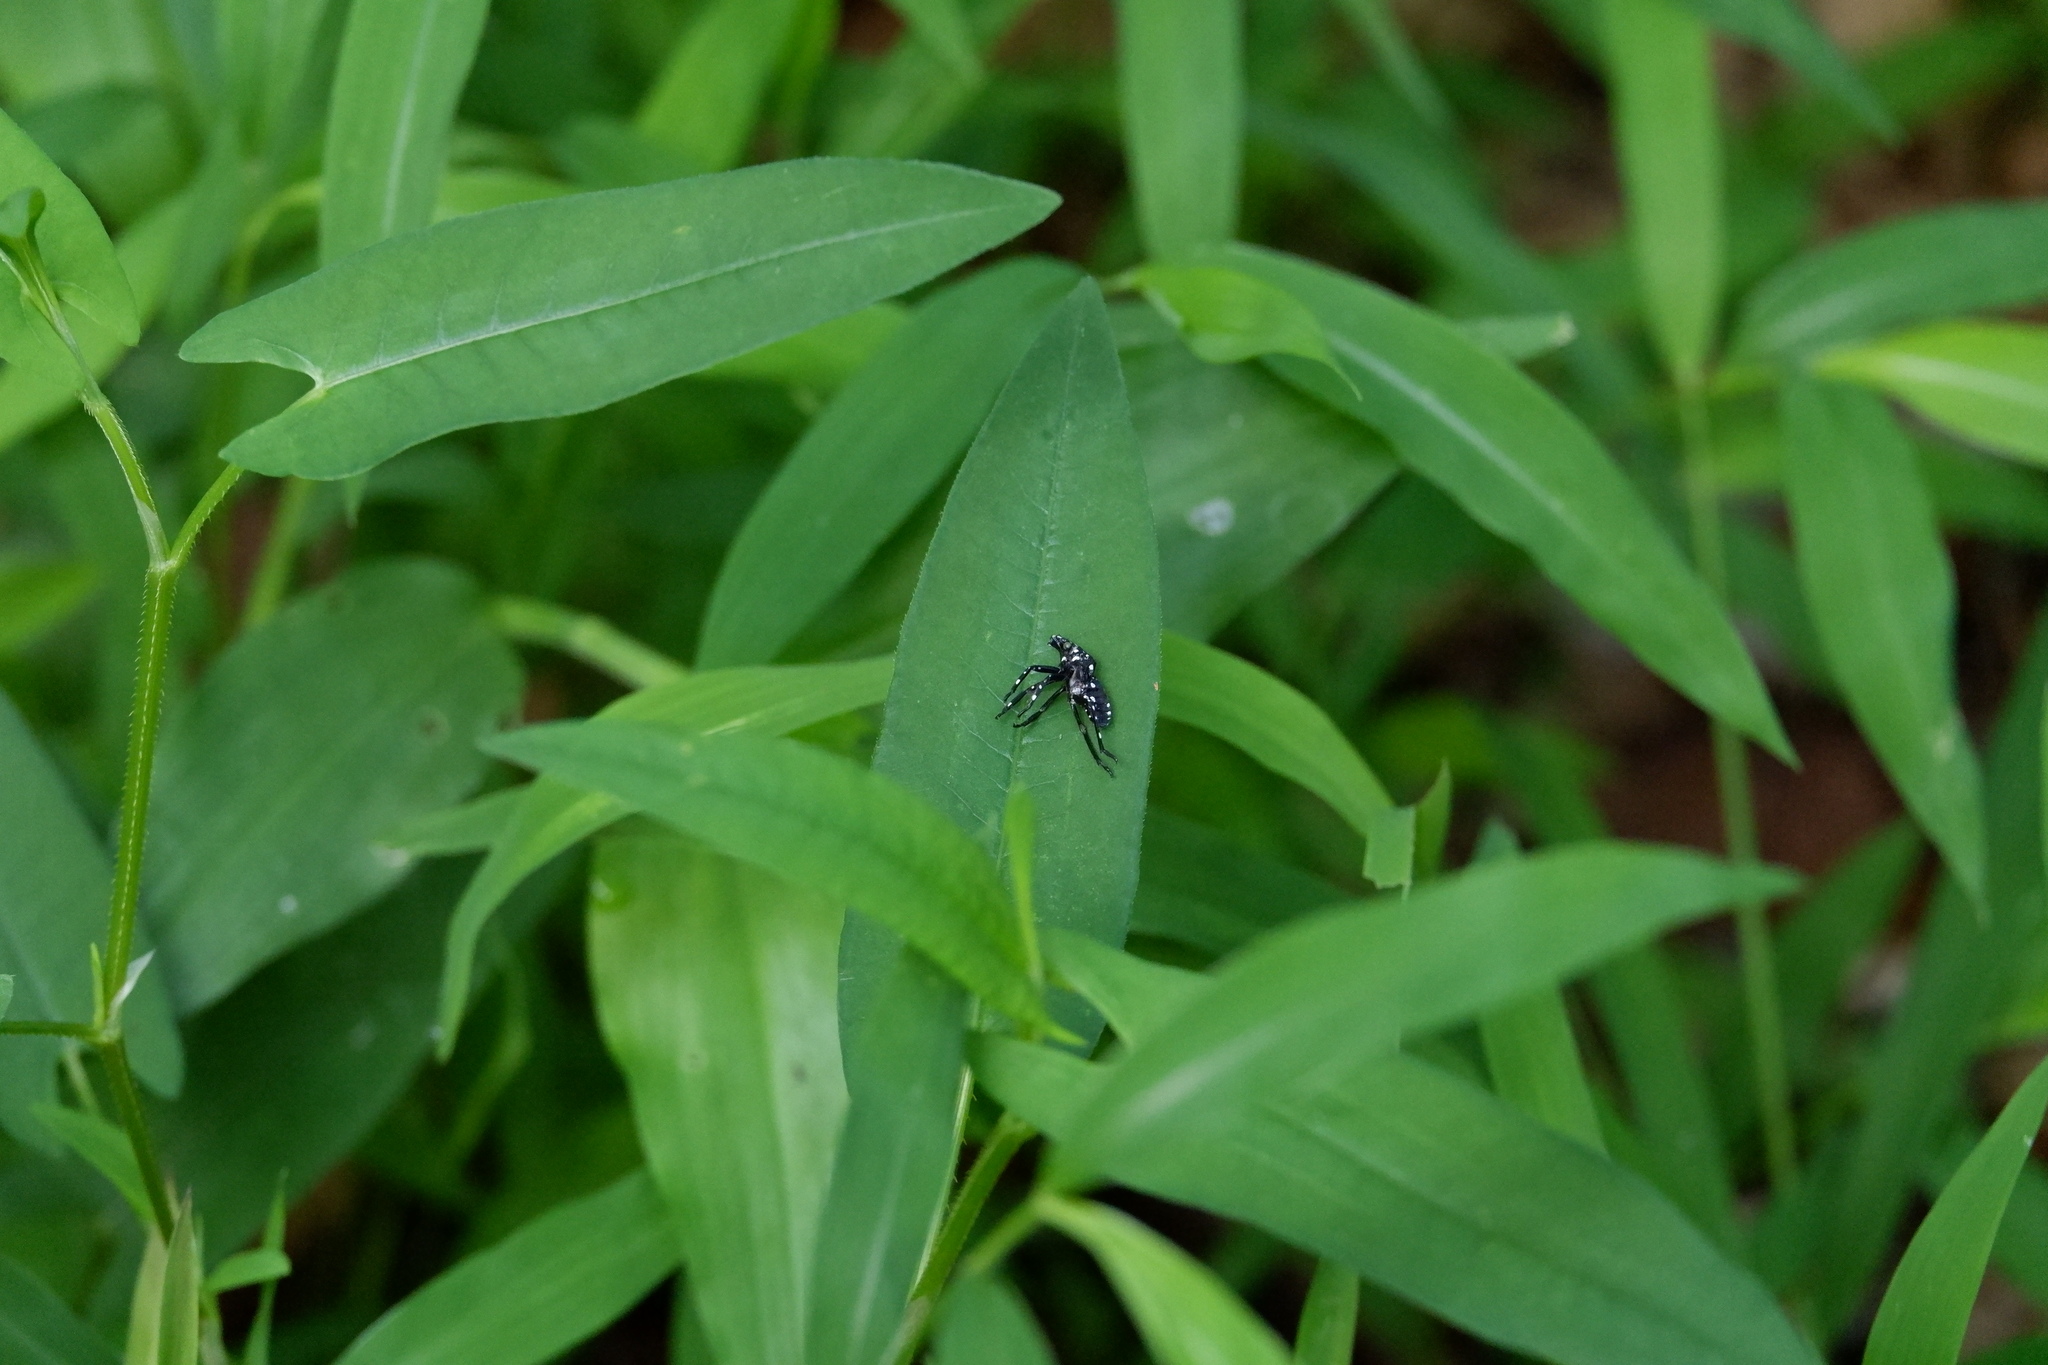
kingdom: Animalia
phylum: Arthropoda
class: Insecta
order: Hemiptera
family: Fulgoridae
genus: Lycorma
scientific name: Lycorma delicatula
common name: Spotted lanternfly
